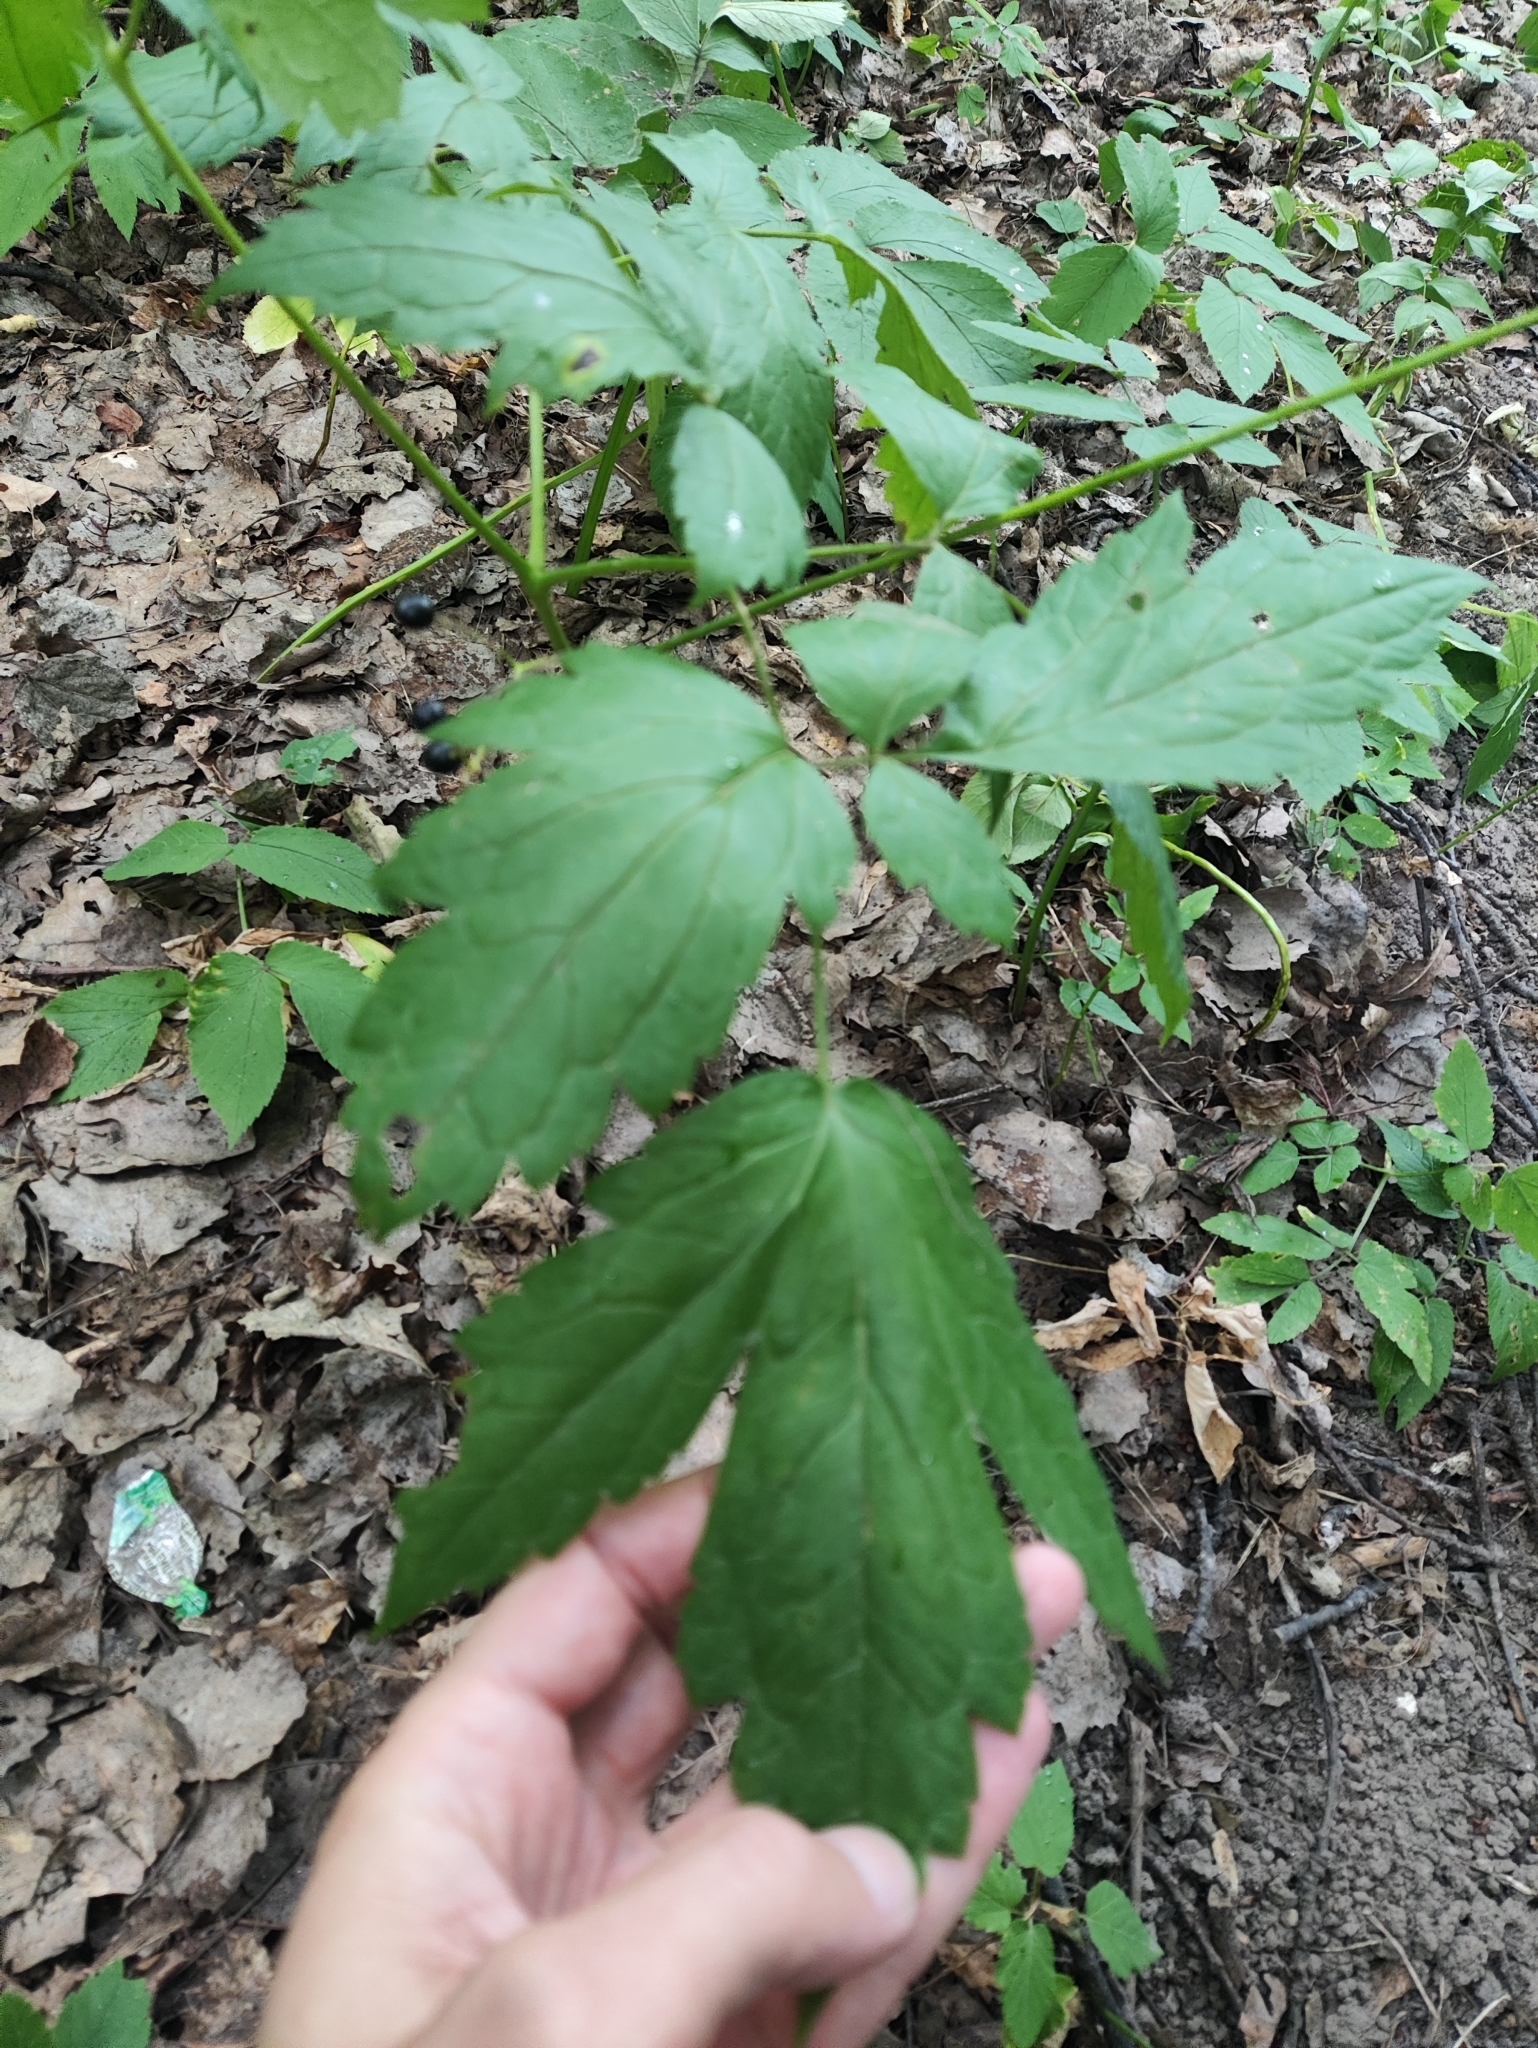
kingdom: Plantae
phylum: Tracheophyta
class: Magnoliopsida
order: Ranunculales
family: Ranunculaceae
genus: Actaea
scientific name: Actaea spicata
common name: Baneberry
